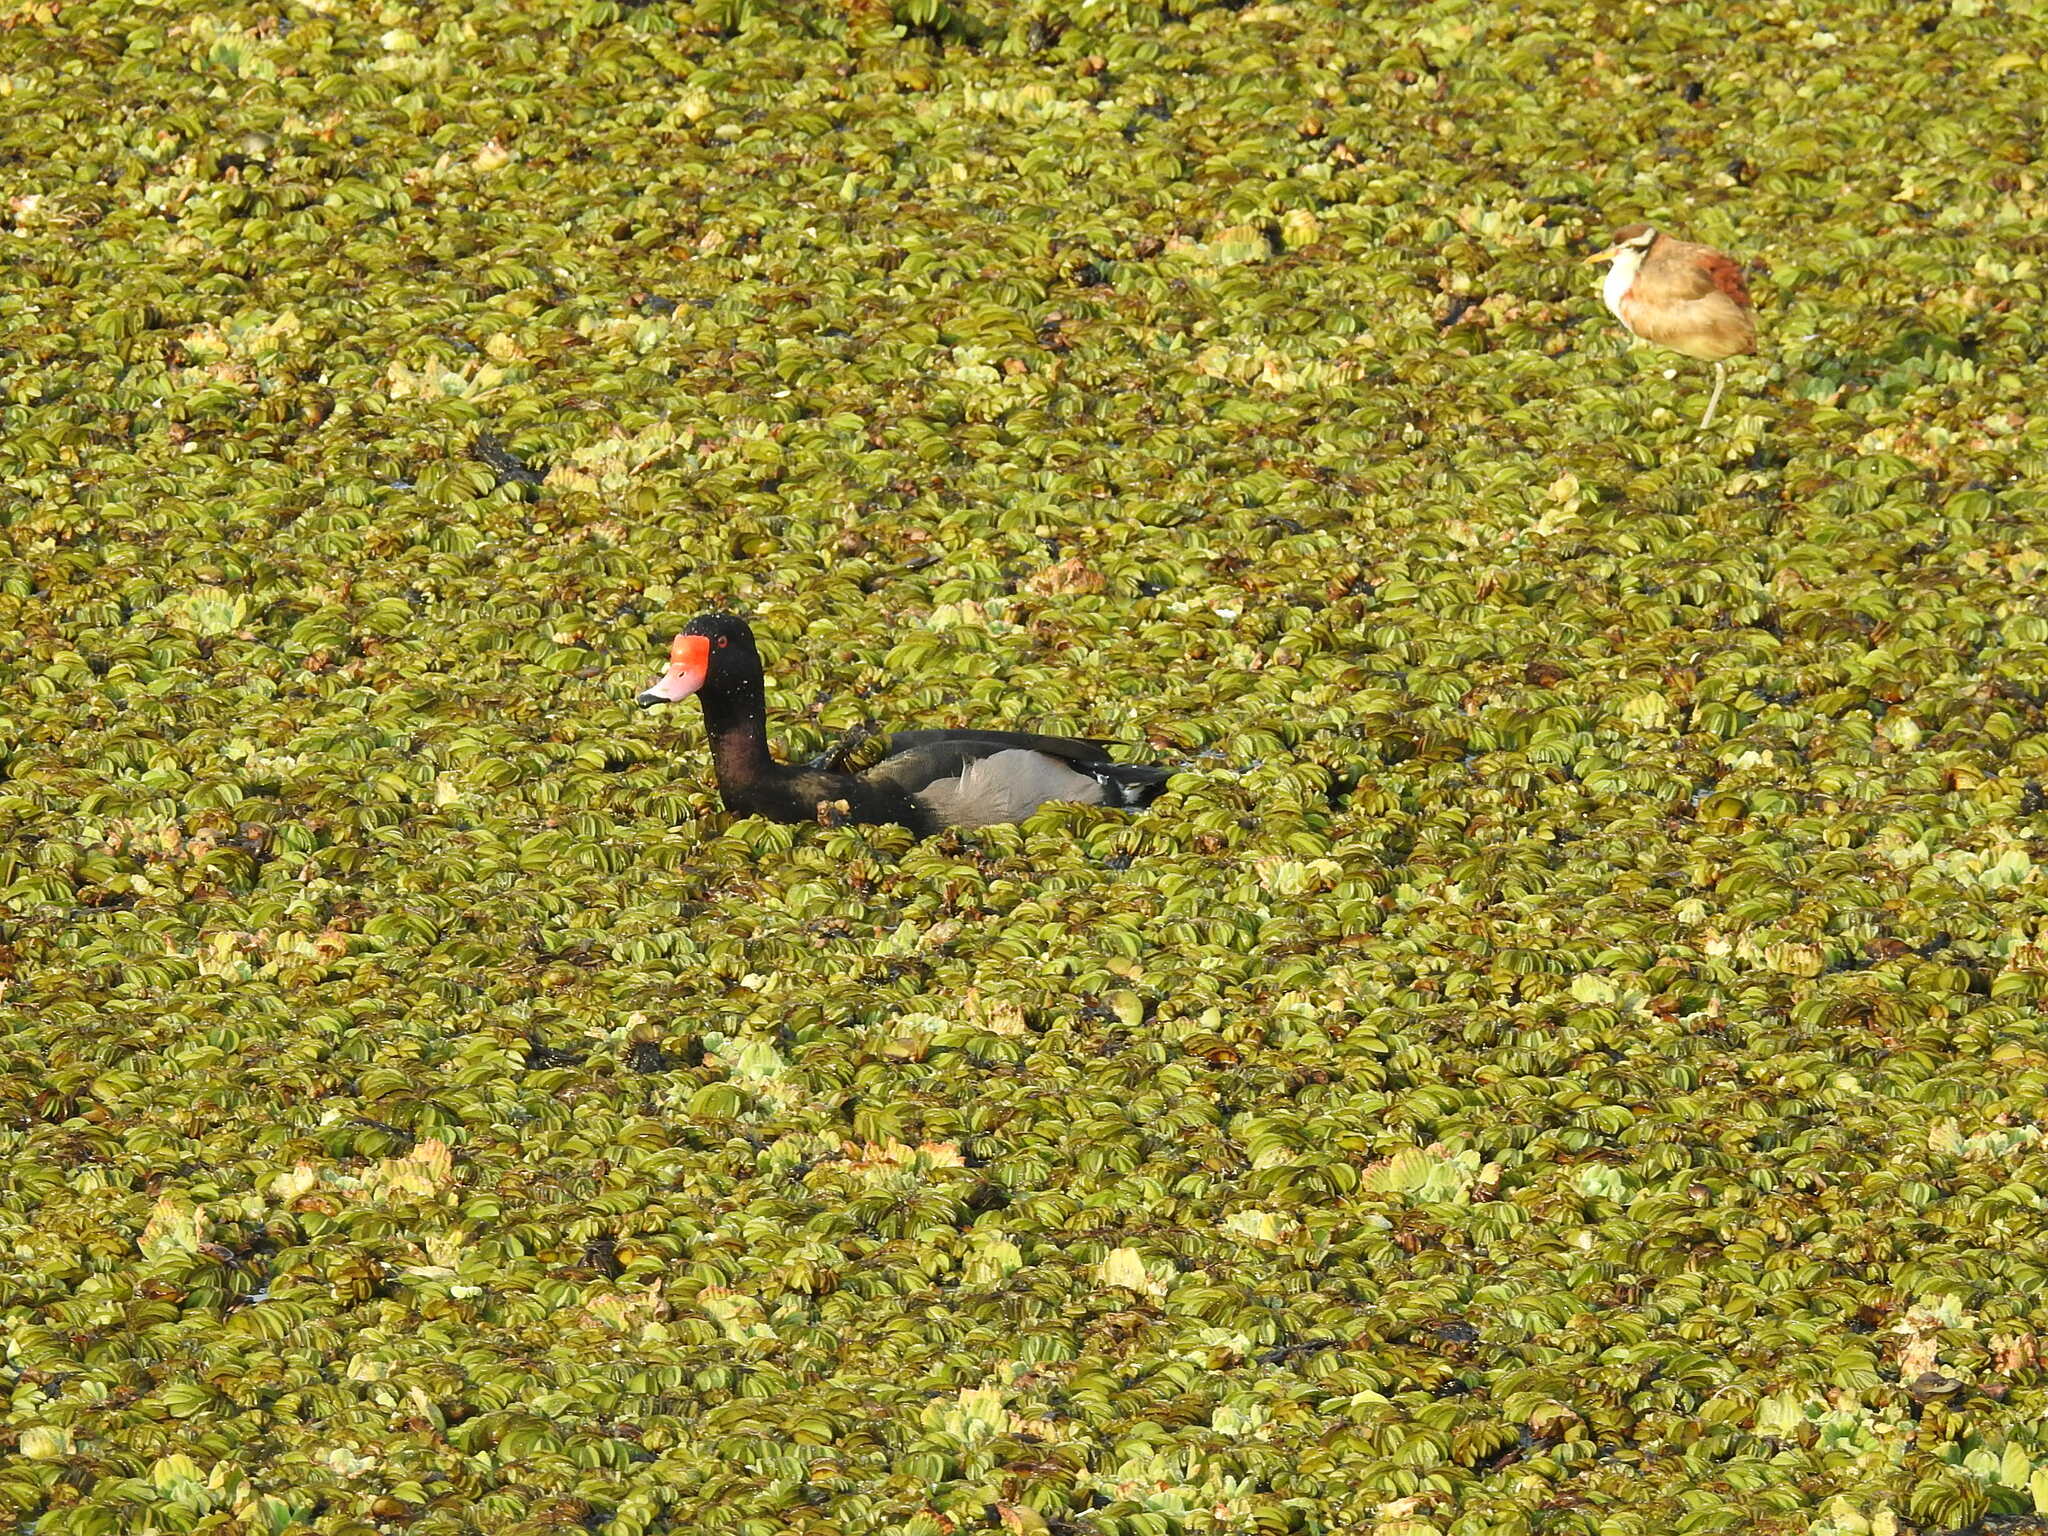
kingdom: Animalia
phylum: Chordata
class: Aves
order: Anseriformes
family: Anatidae
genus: Netta
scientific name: Netta peposaca
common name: Rosy-billed pochard
